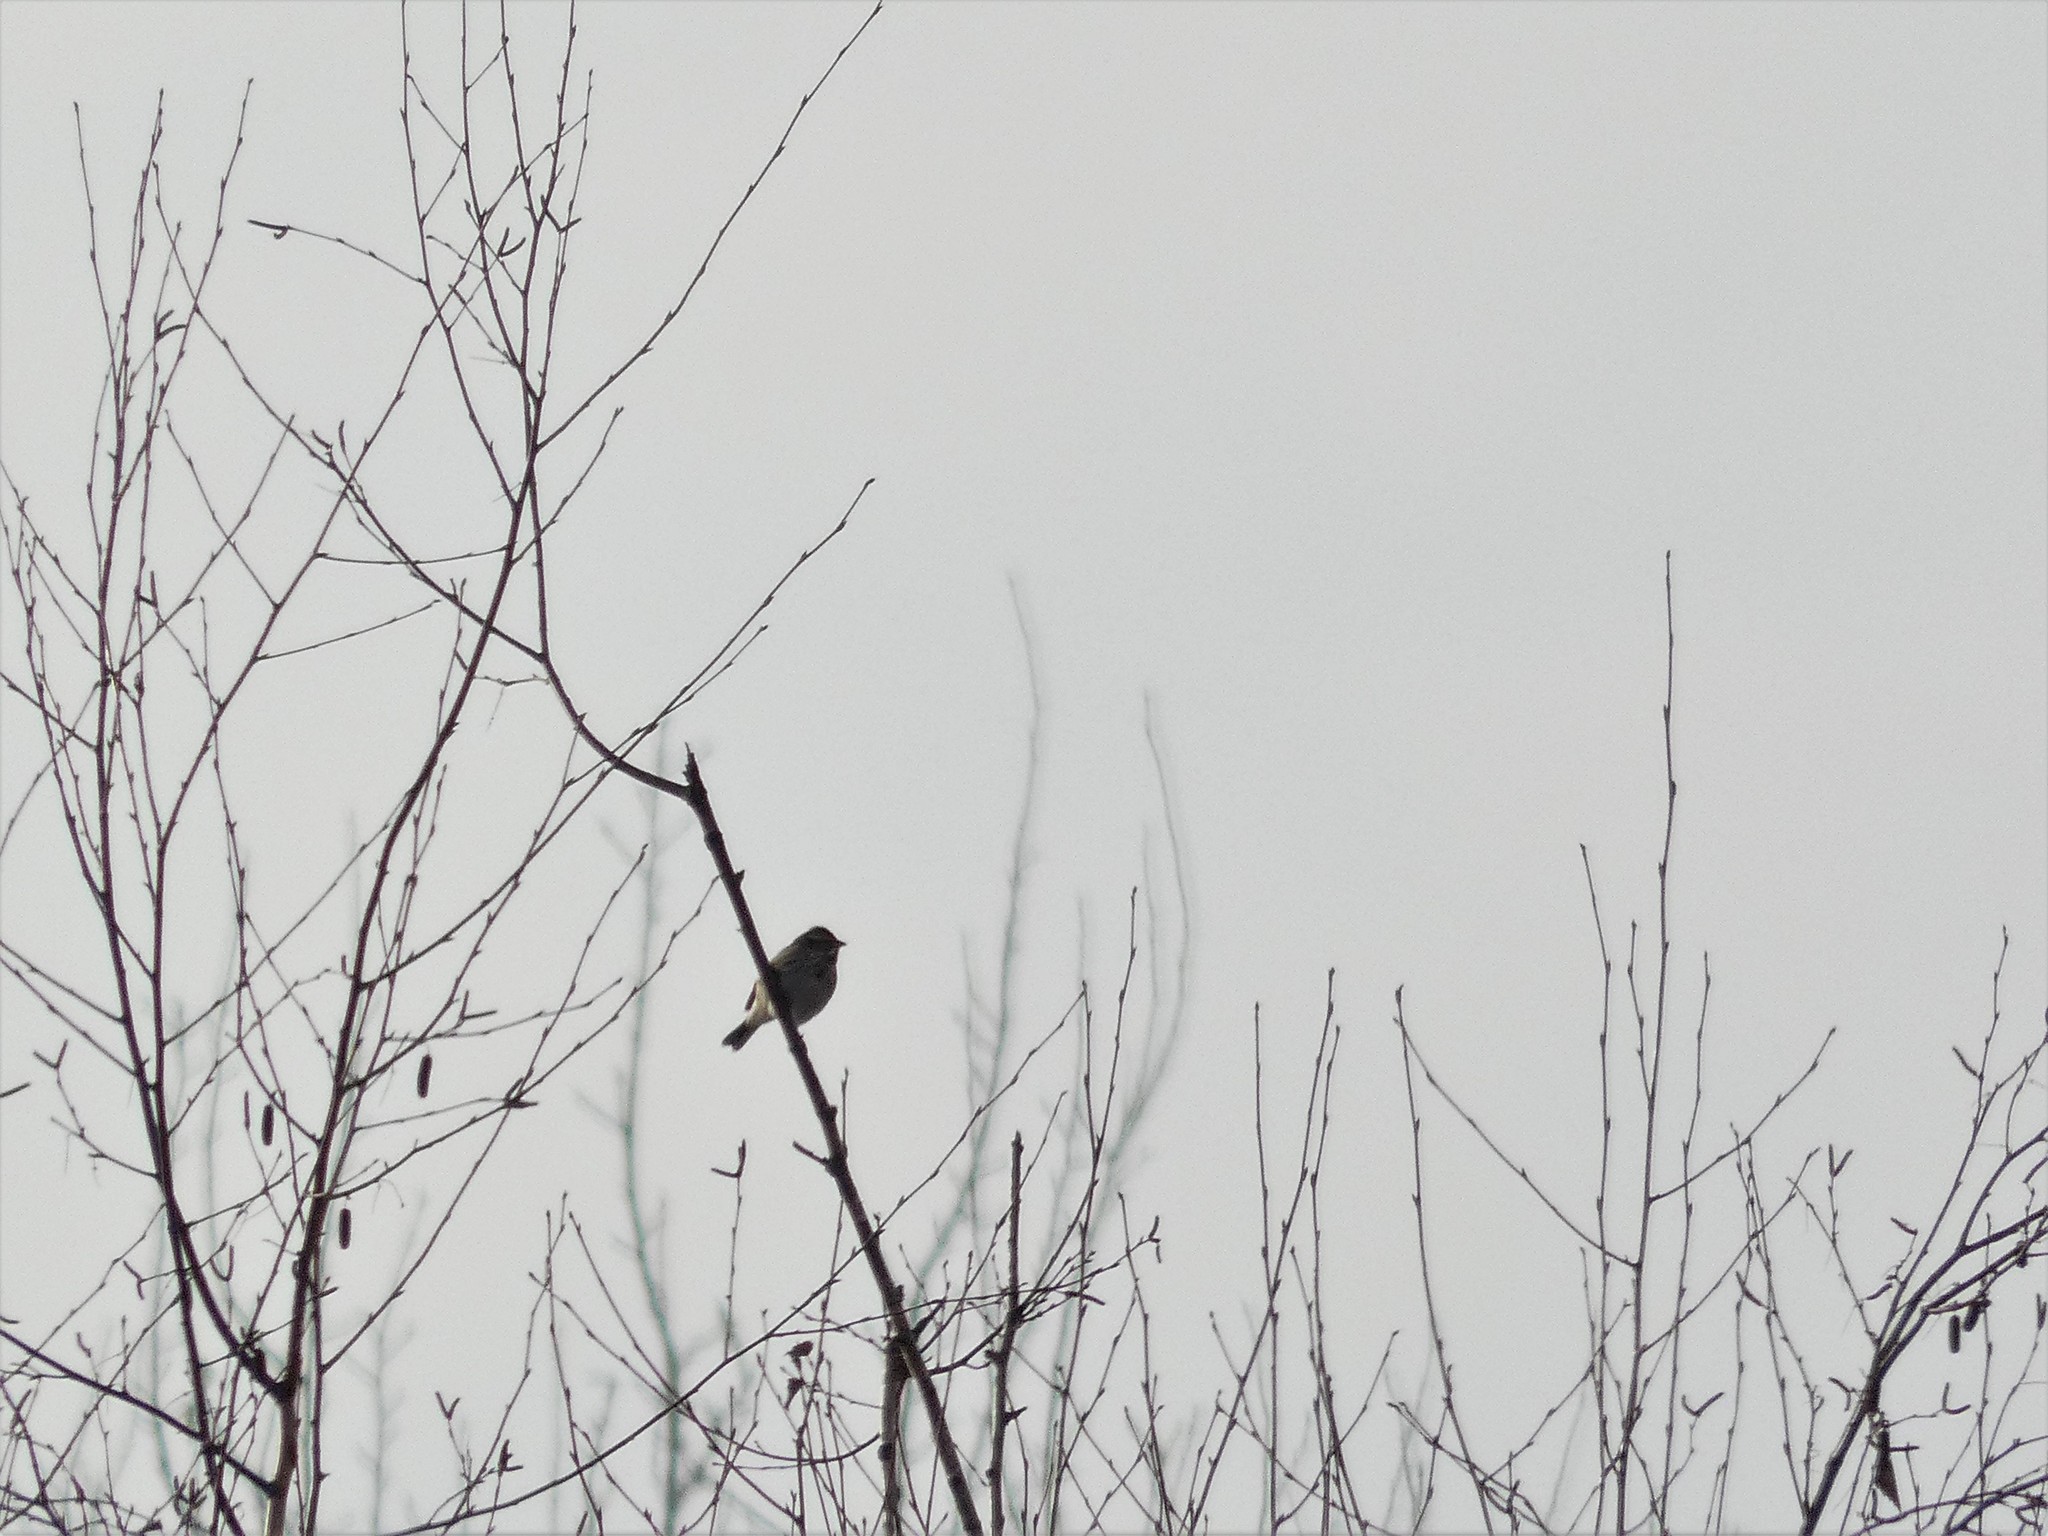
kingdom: Animalia
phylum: Chordata
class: Aves
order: Passeriformes
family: Emberizidae
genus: Emberiza
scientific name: Emberiza schoeniclus
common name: Reed bunting
